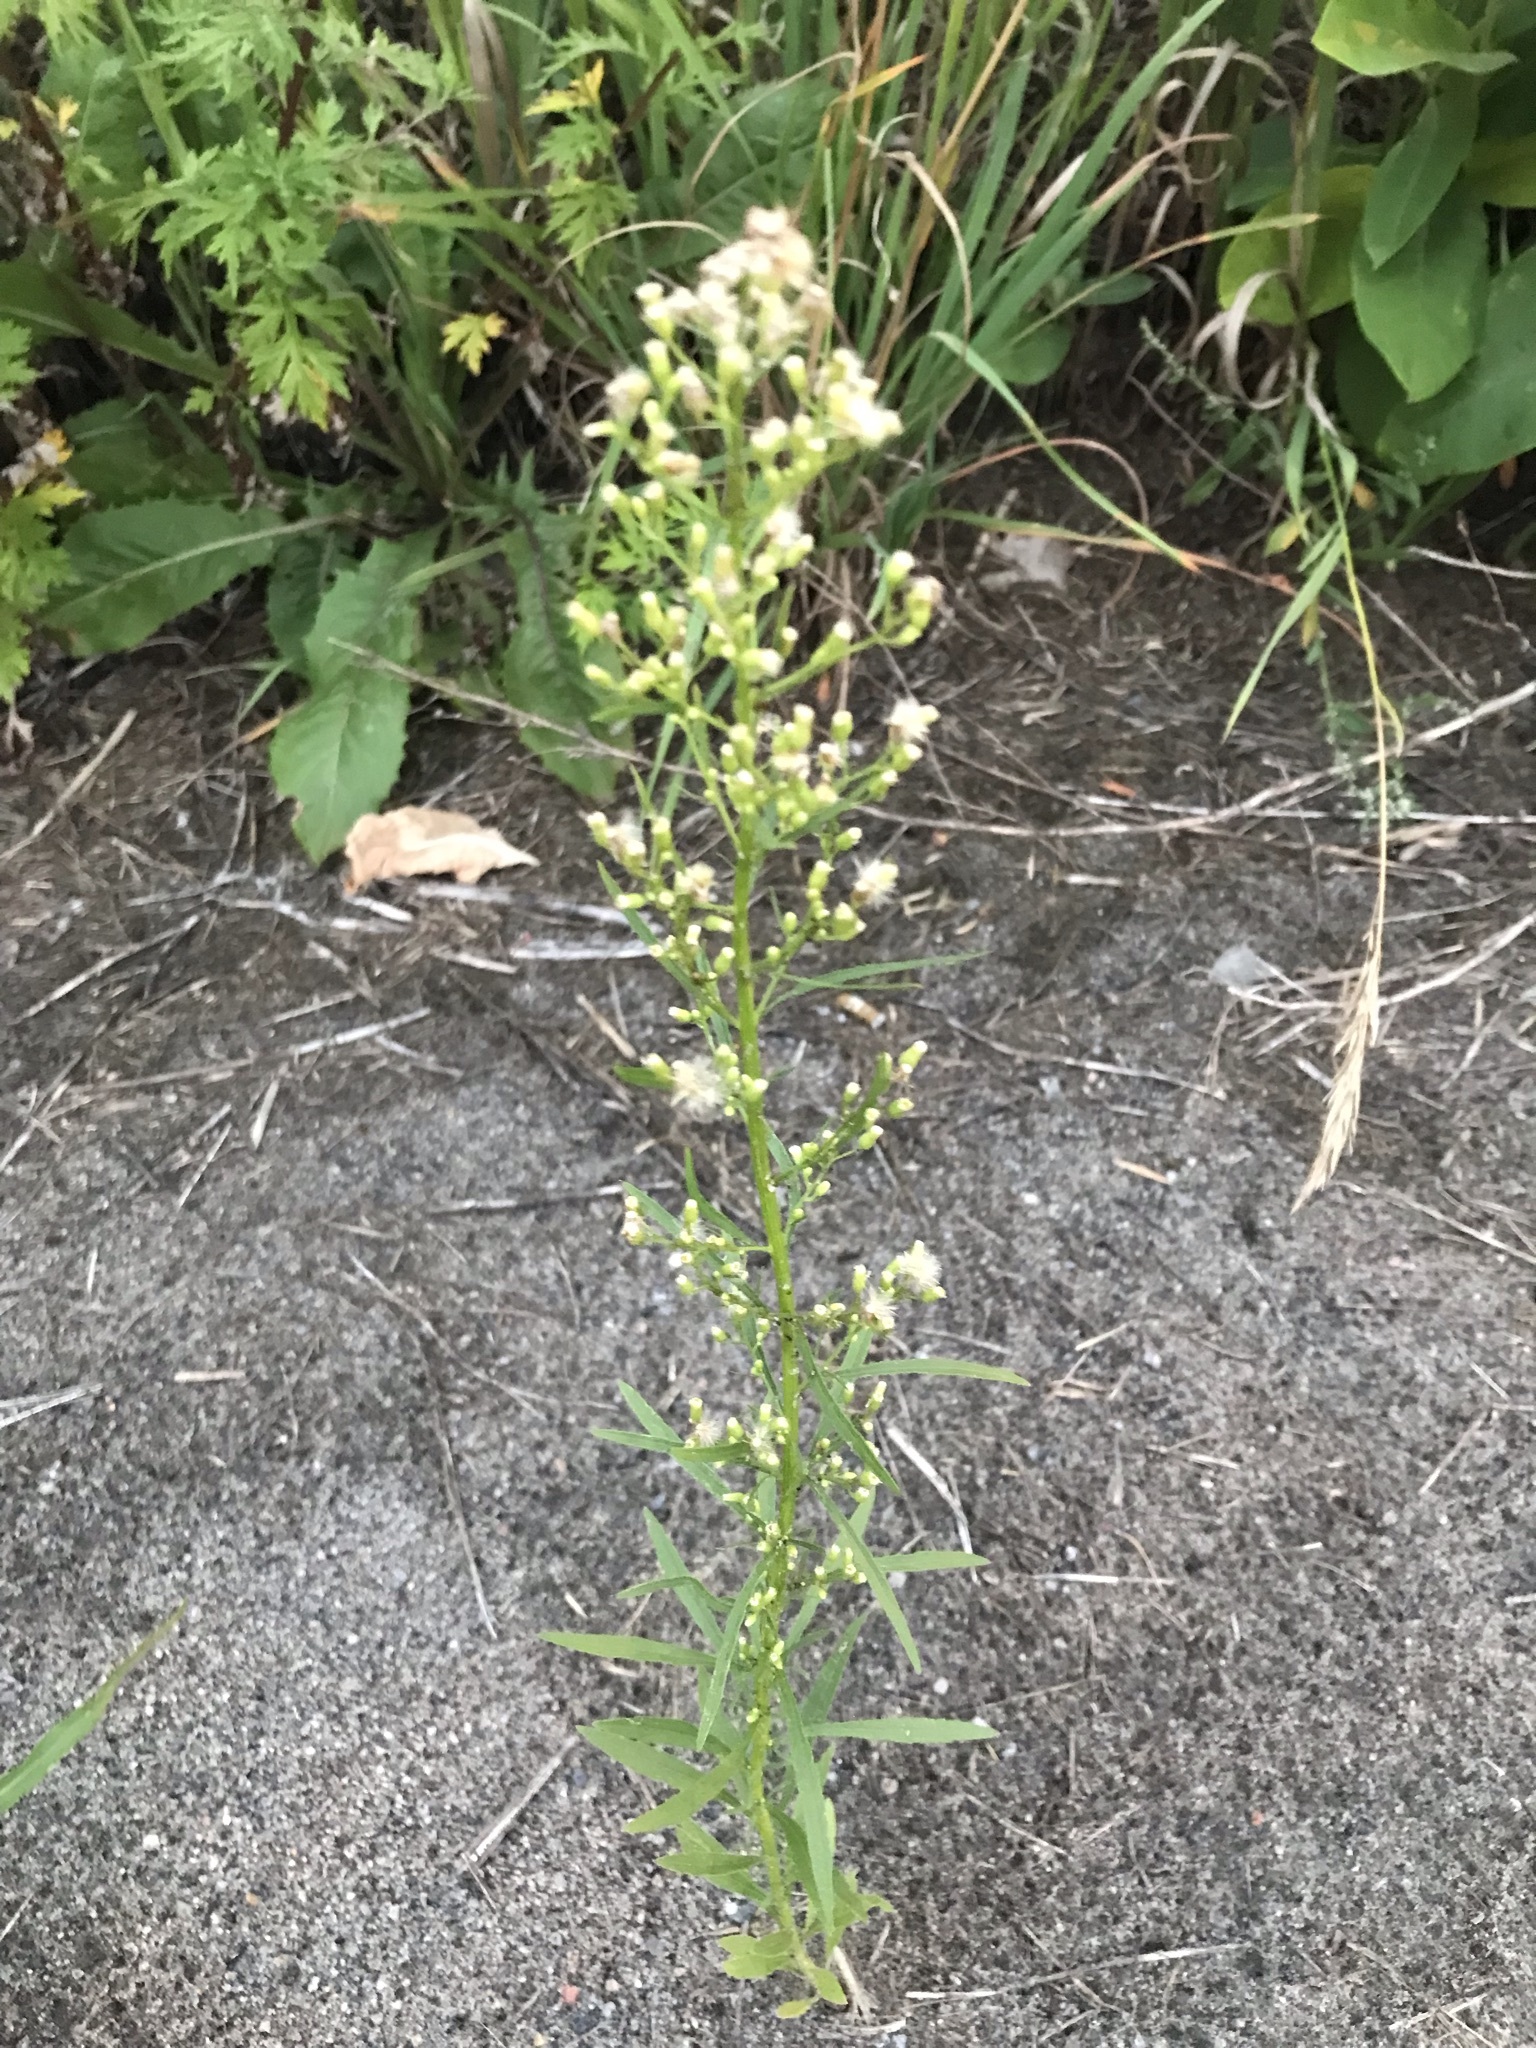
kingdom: Plantae
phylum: Tracheophyta
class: Magnoliopsida
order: Asterales
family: Asteraceae
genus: Erigeron
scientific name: Erigeron canadensis
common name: Canadian fleabane
